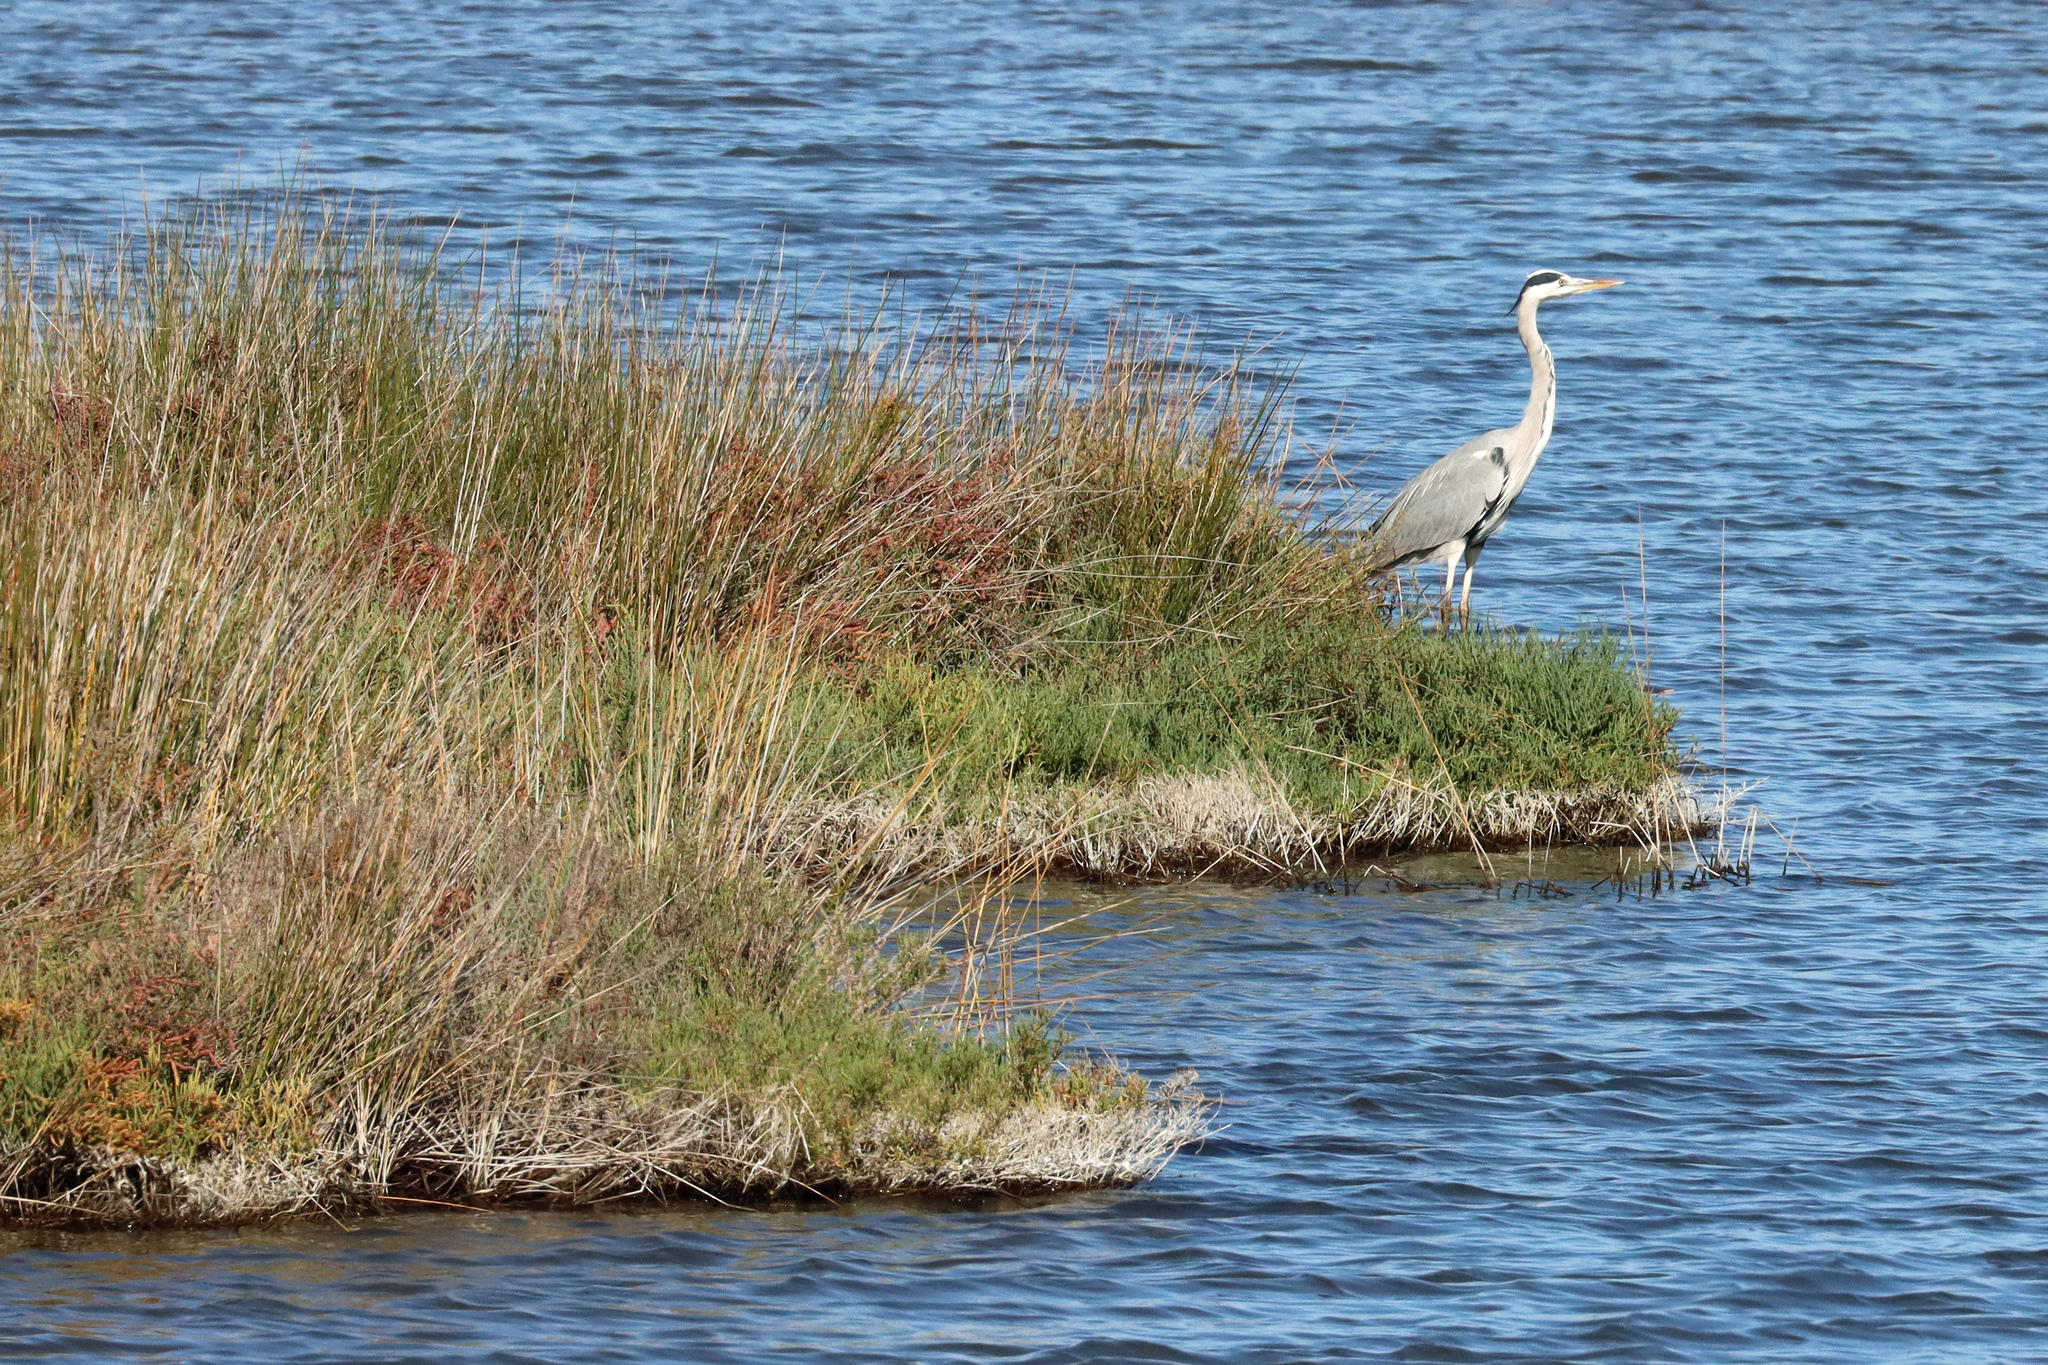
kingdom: Animalia
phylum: Chordata
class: Aves
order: Pelecaniformes
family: Ardeidae
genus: Ardea
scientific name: Ardea cinerea
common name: Grey heron
